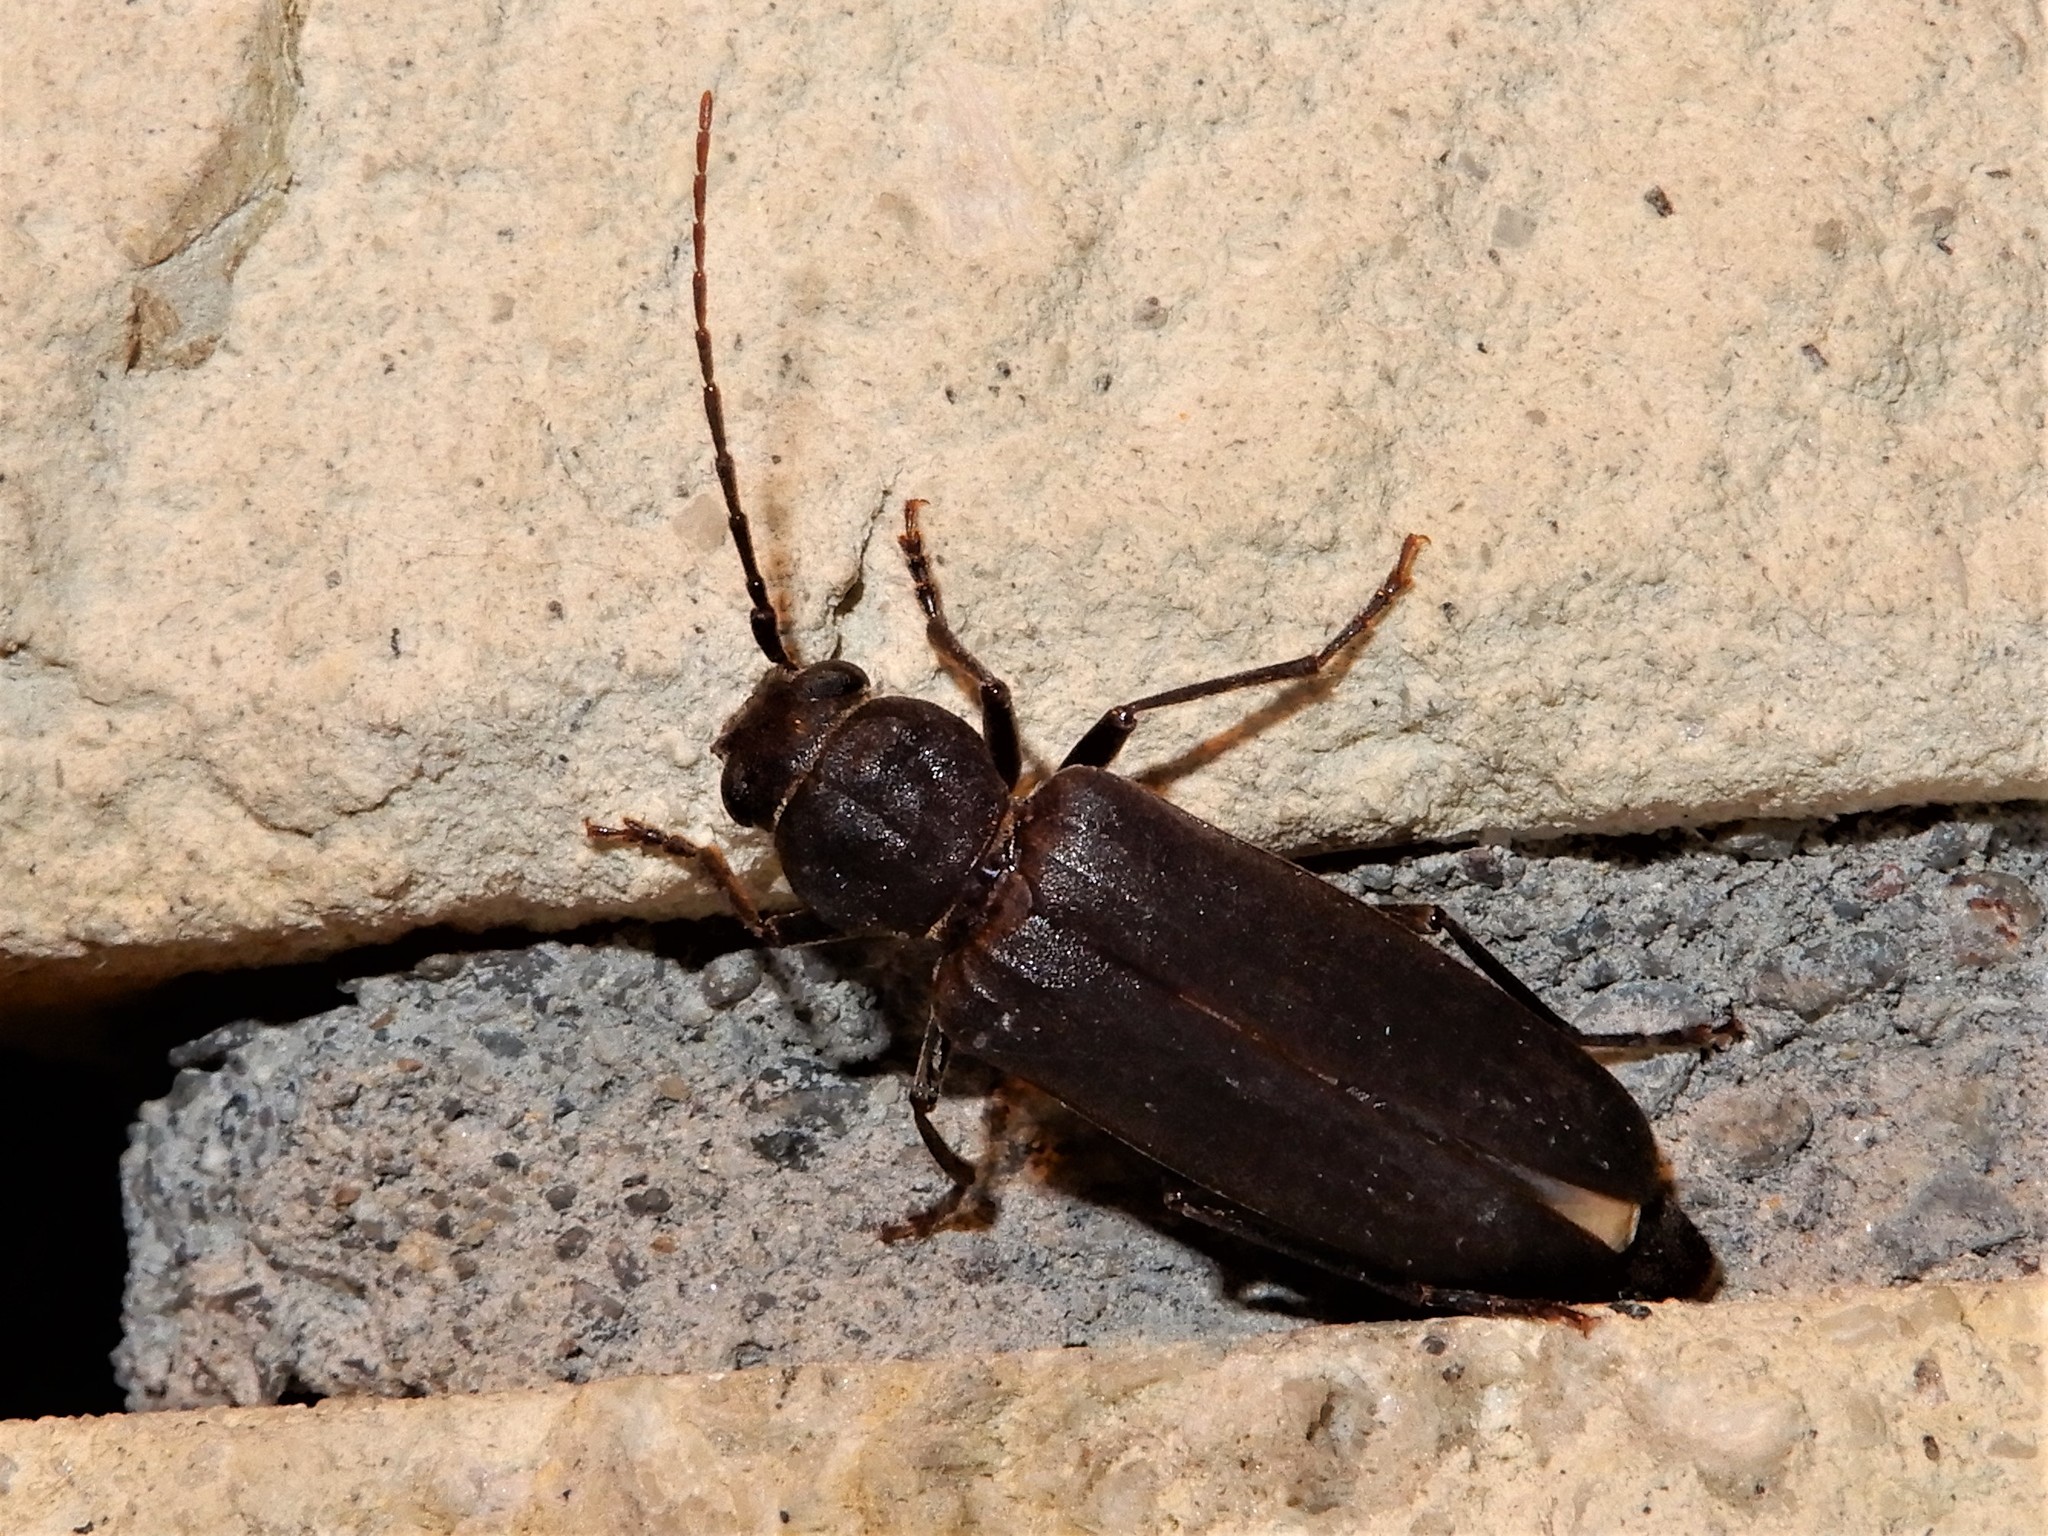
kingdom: Animalia
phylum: Arthropoda
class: Insecta
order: Coleoptera
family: Cerambycidae
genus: Arhopalus
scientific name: Arhopalus ferus
